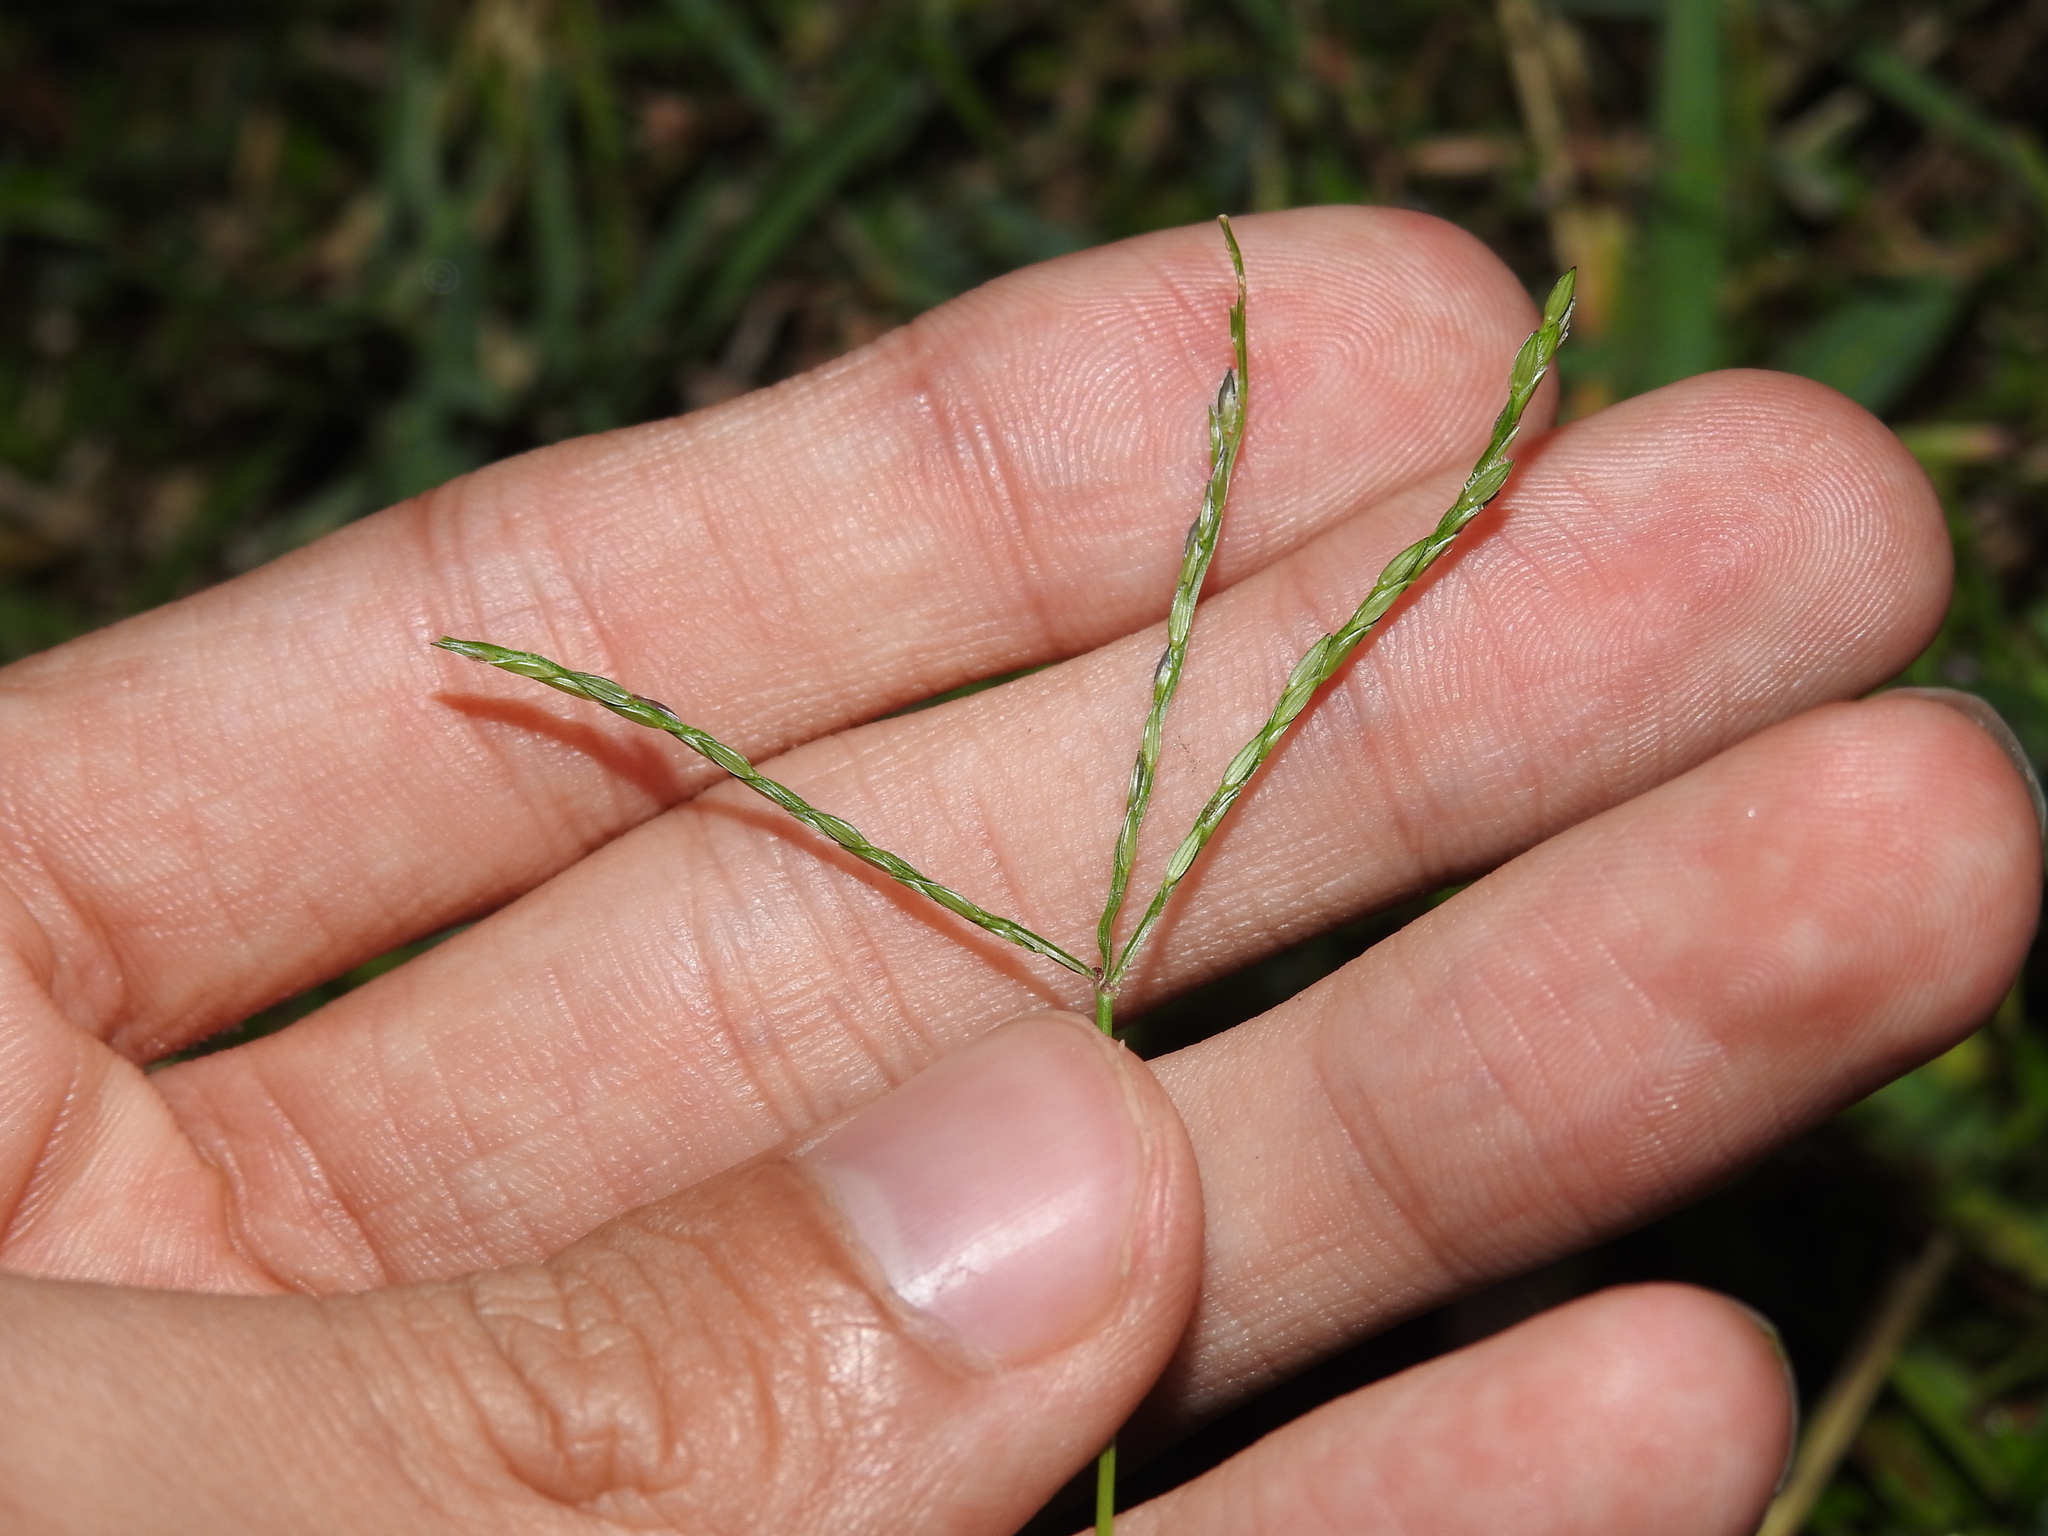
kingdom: Plantae
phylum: Tracheophyta
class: Liliopsida
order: Poales
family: Poaceae
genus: Cynodon
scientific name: Cynodon dactylon
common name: Bermuda grass
